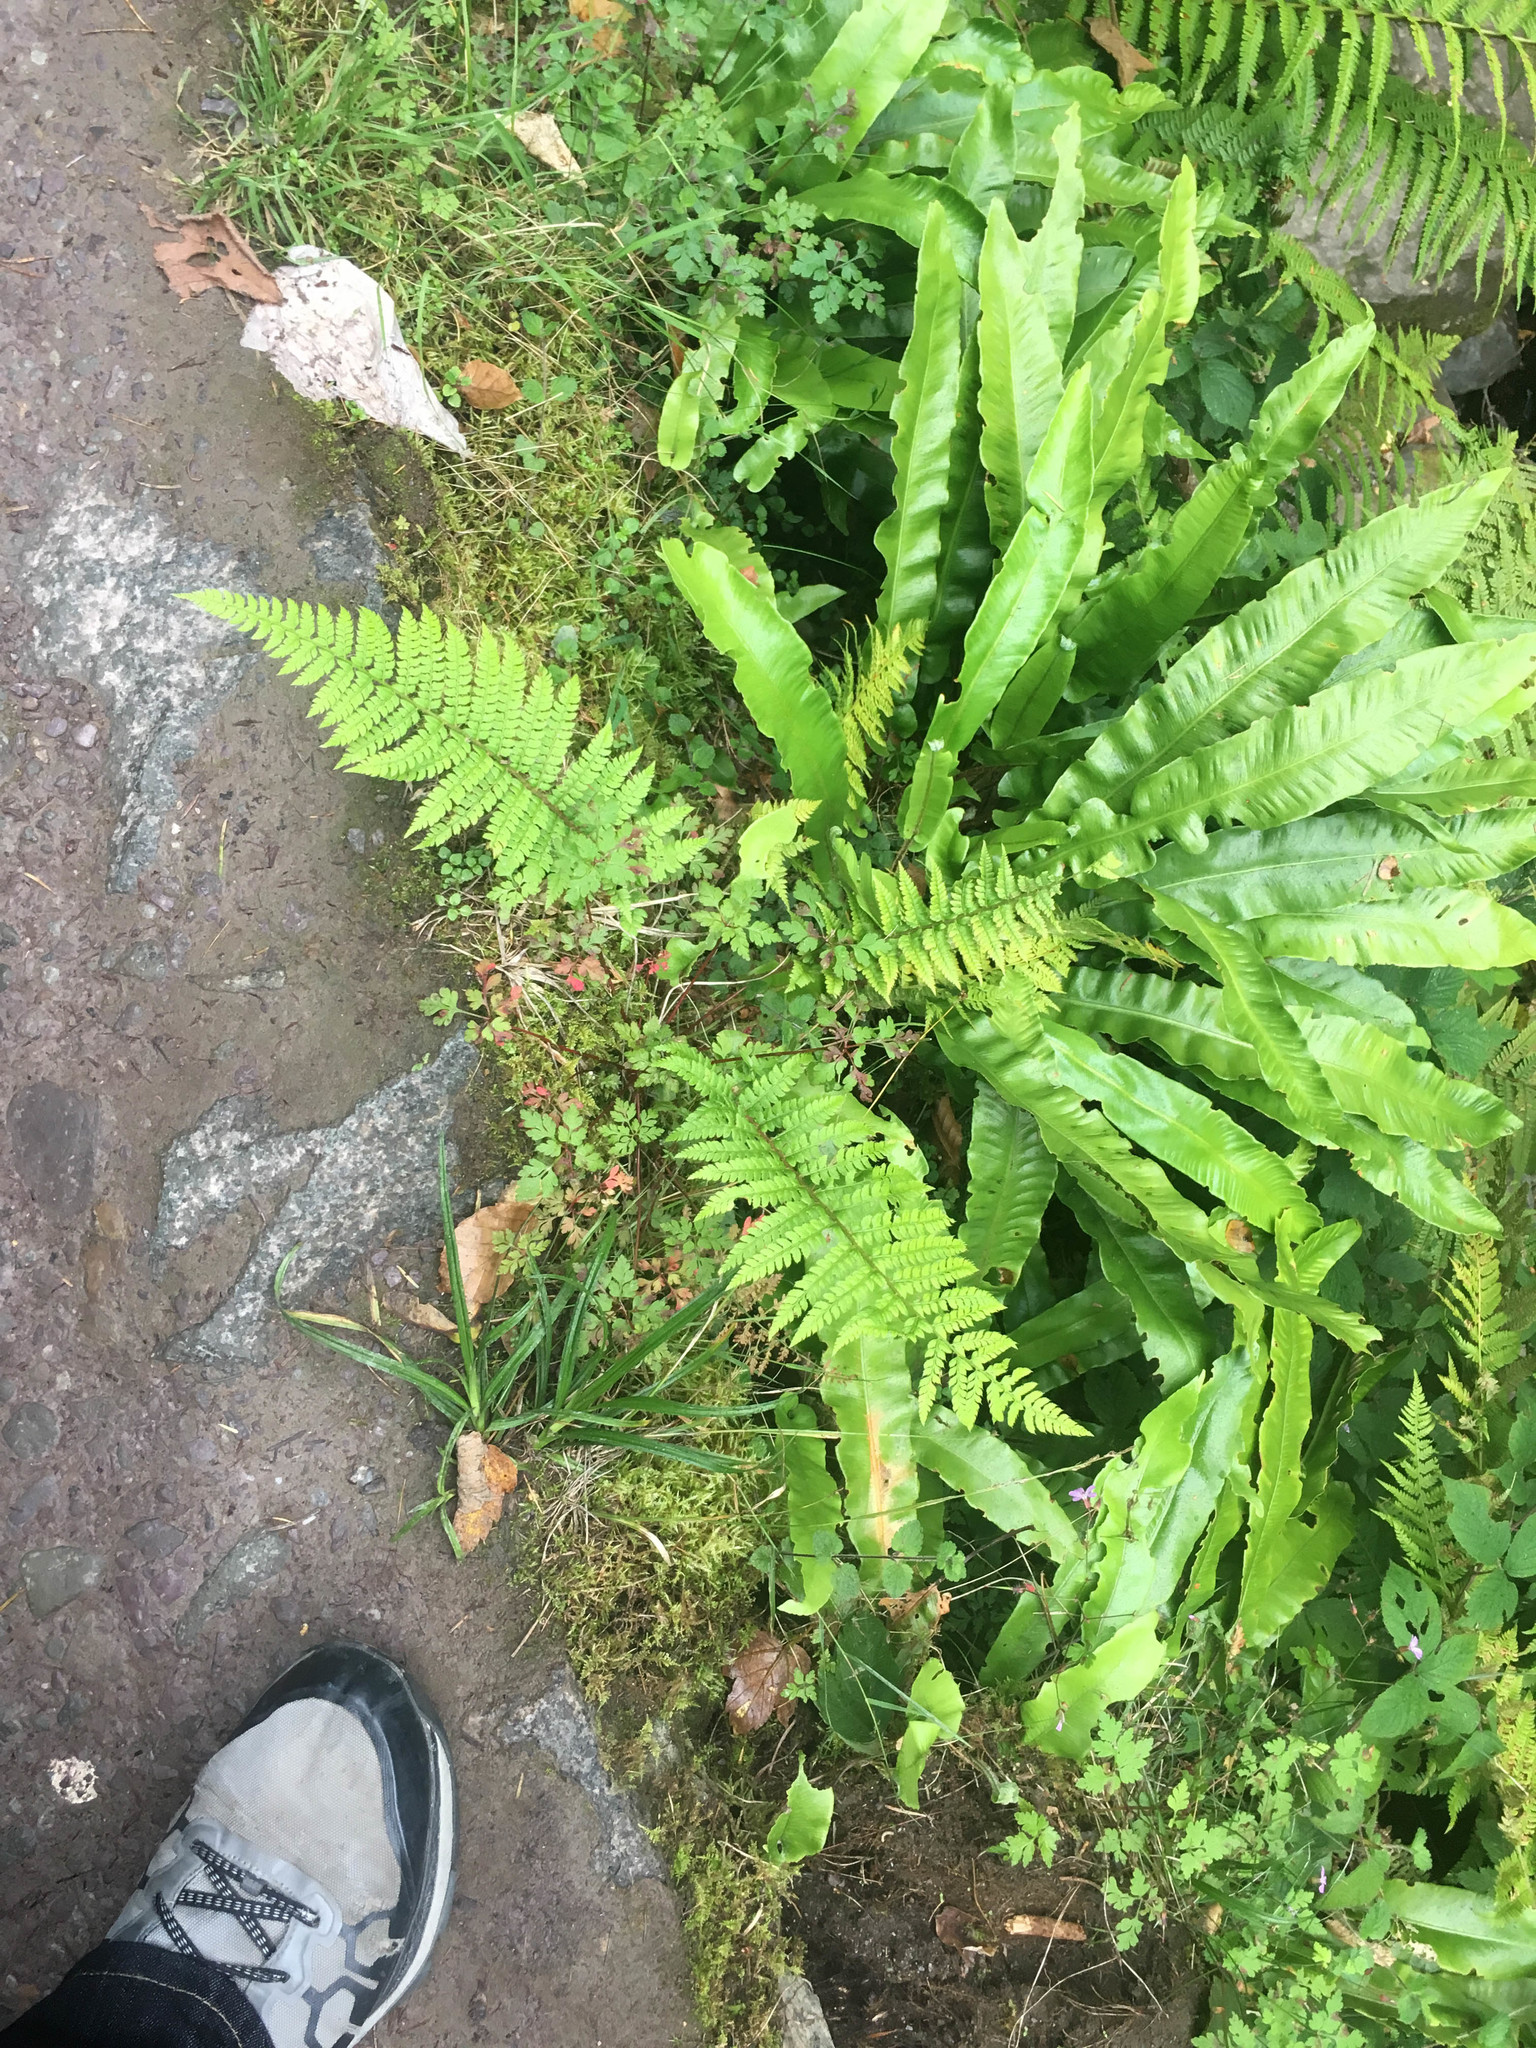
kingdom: Plantae
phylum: Tracheophyta
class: Polypodiopsida
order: Polypodiales
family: Aspleniaceae
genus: Asplenium
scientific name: Asplenium scolopendrium
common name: Hart's-tongue fern
